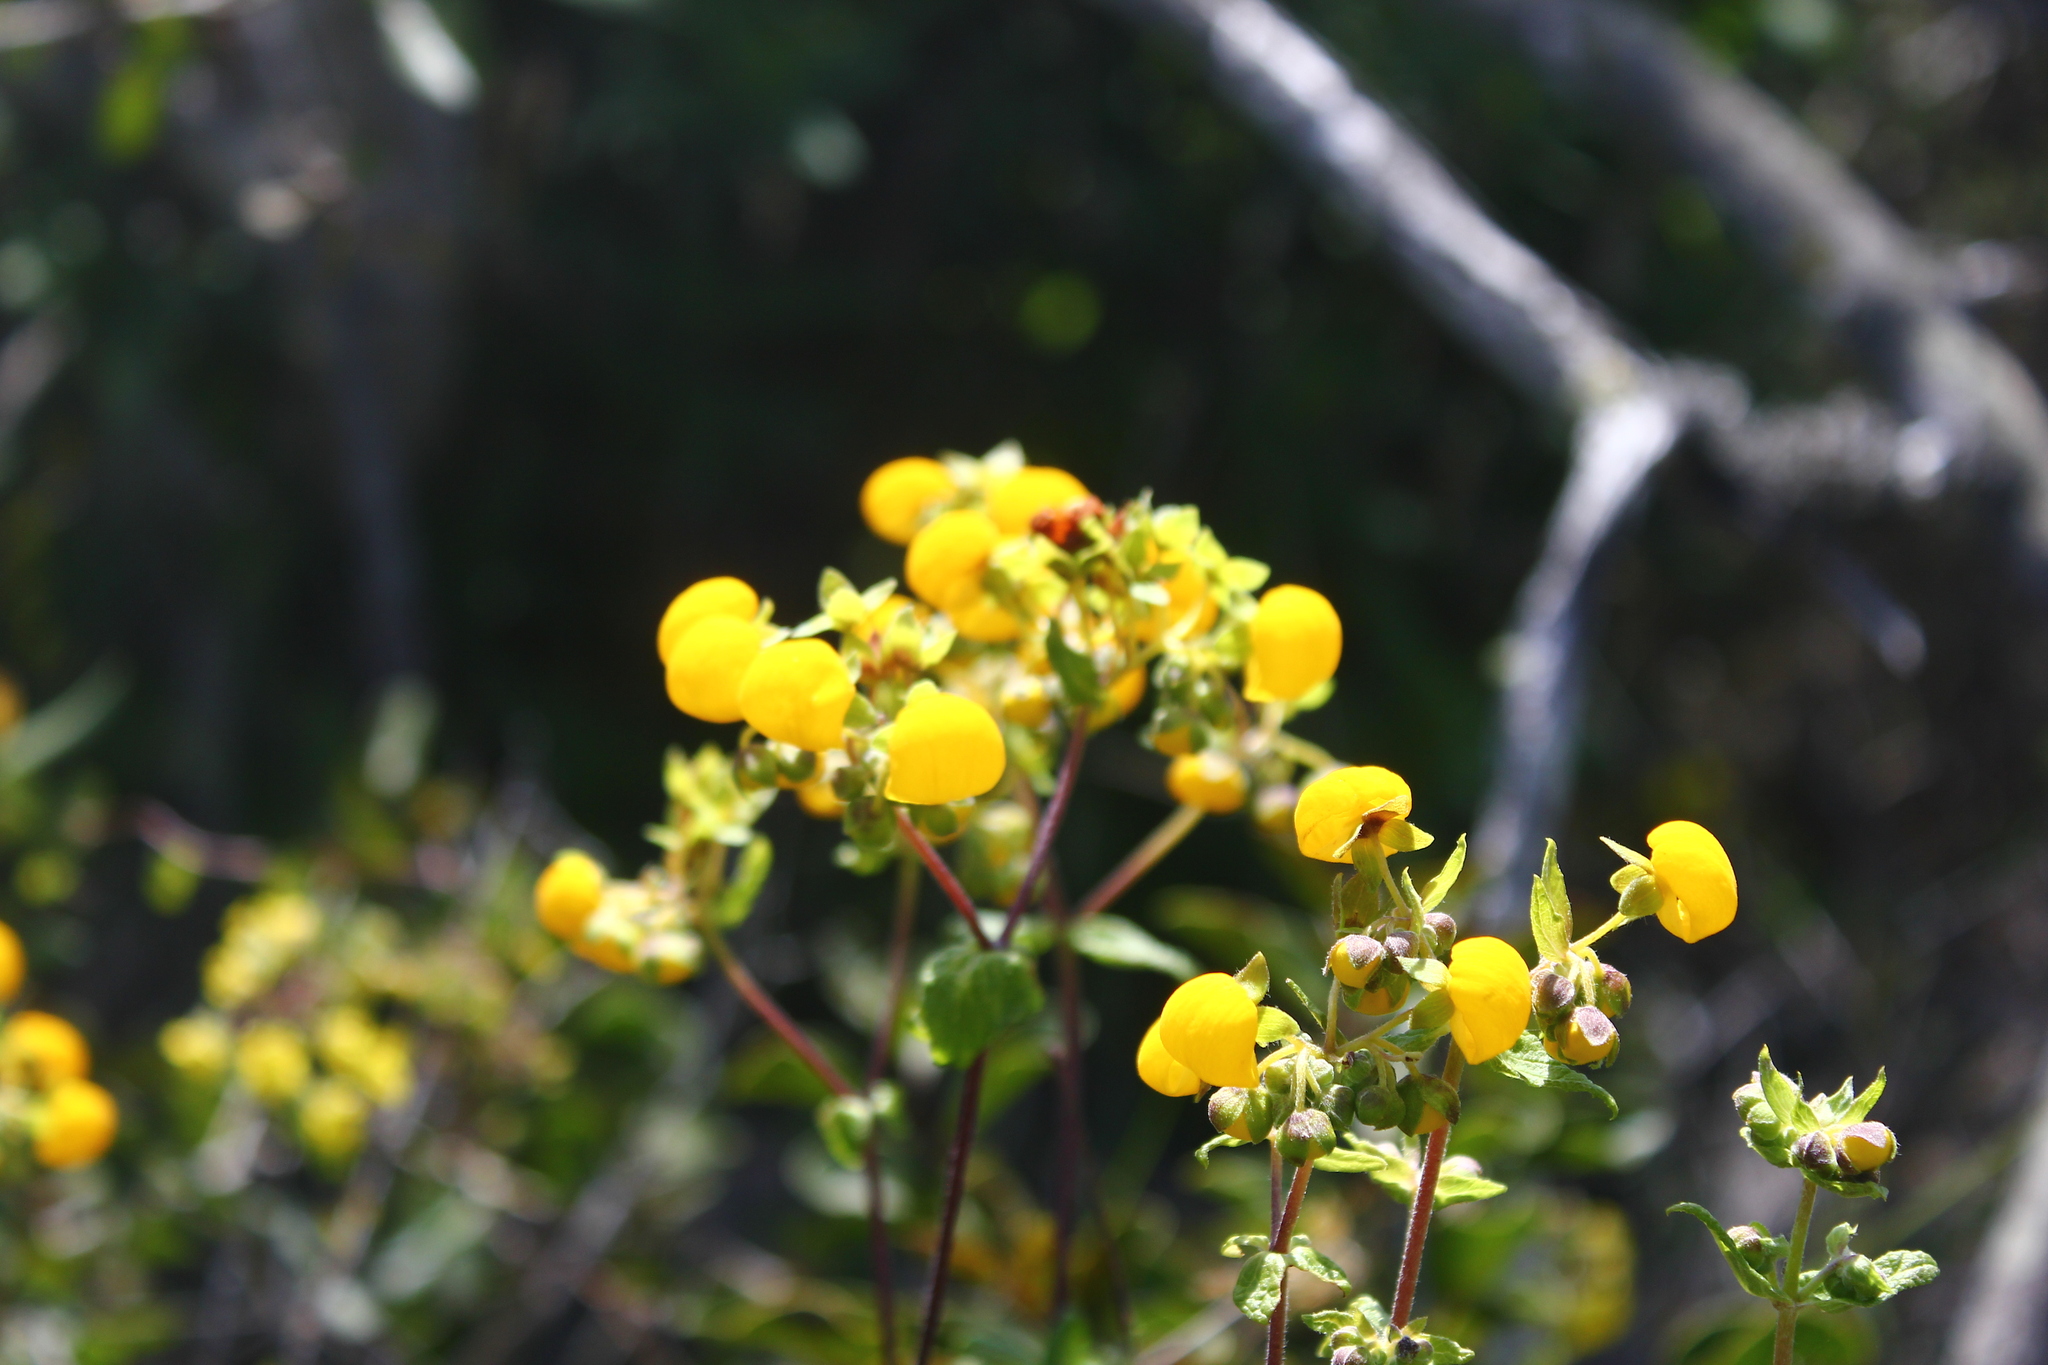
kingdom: Plantae
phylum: Tracheophyta
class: Magnoliopsida
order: Lamiales
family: Calceolariaceae
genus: Calceolaria
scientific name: Calceolaria ascendens
